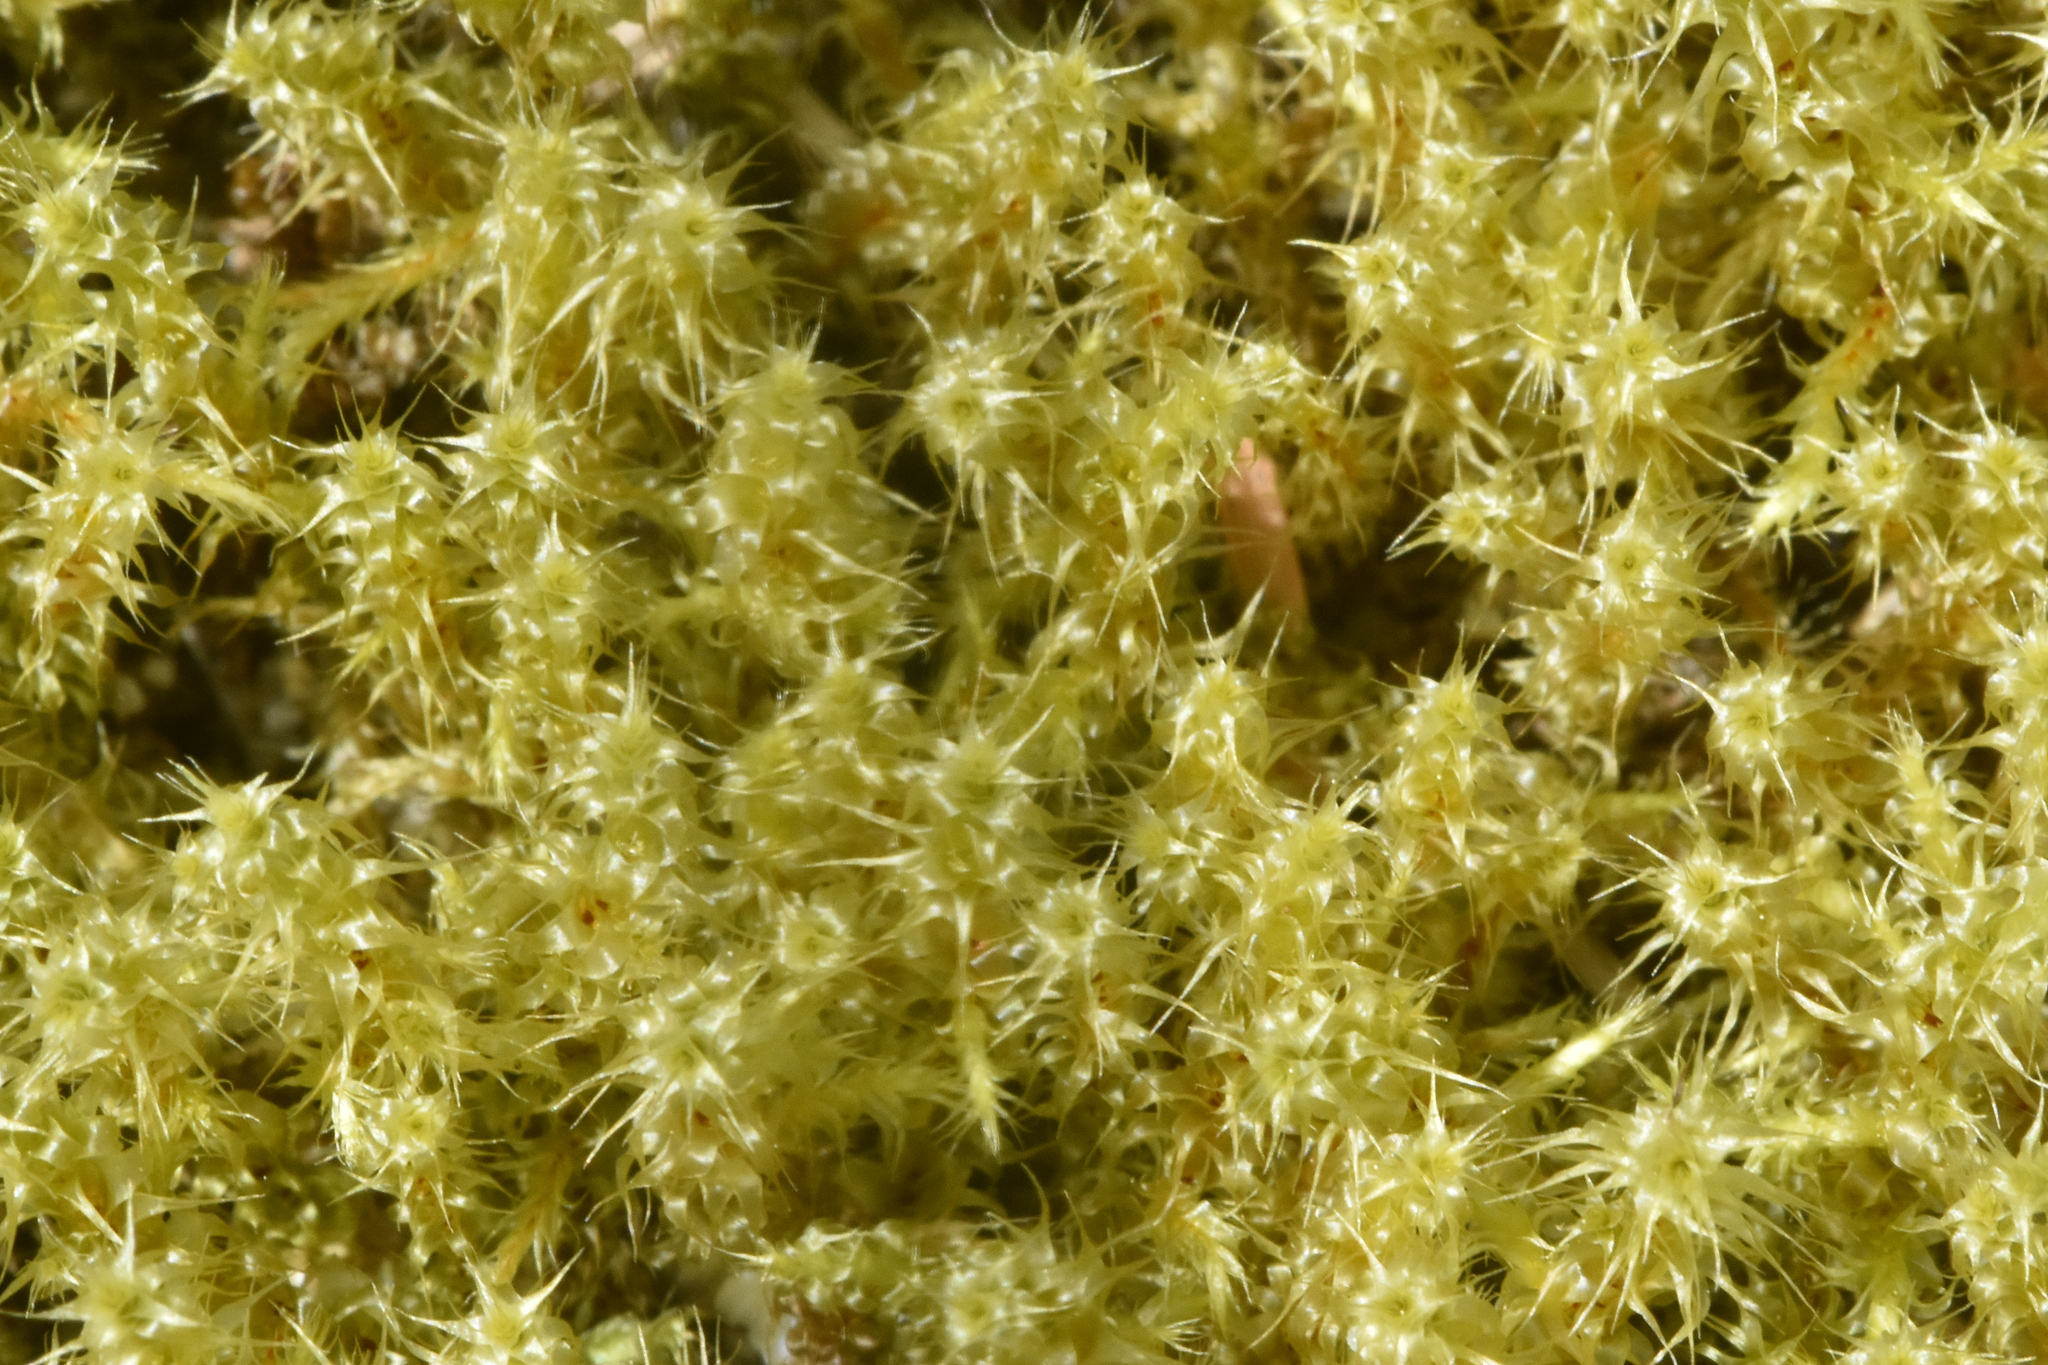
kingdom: Plantae
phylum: Bryophyta
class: Bryopsida
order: Hypnales
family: Hylocomiaceae
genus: Rhytidiadelphus
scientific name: Rhytidiadelphus squarrosus
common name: Springy turf-moss
